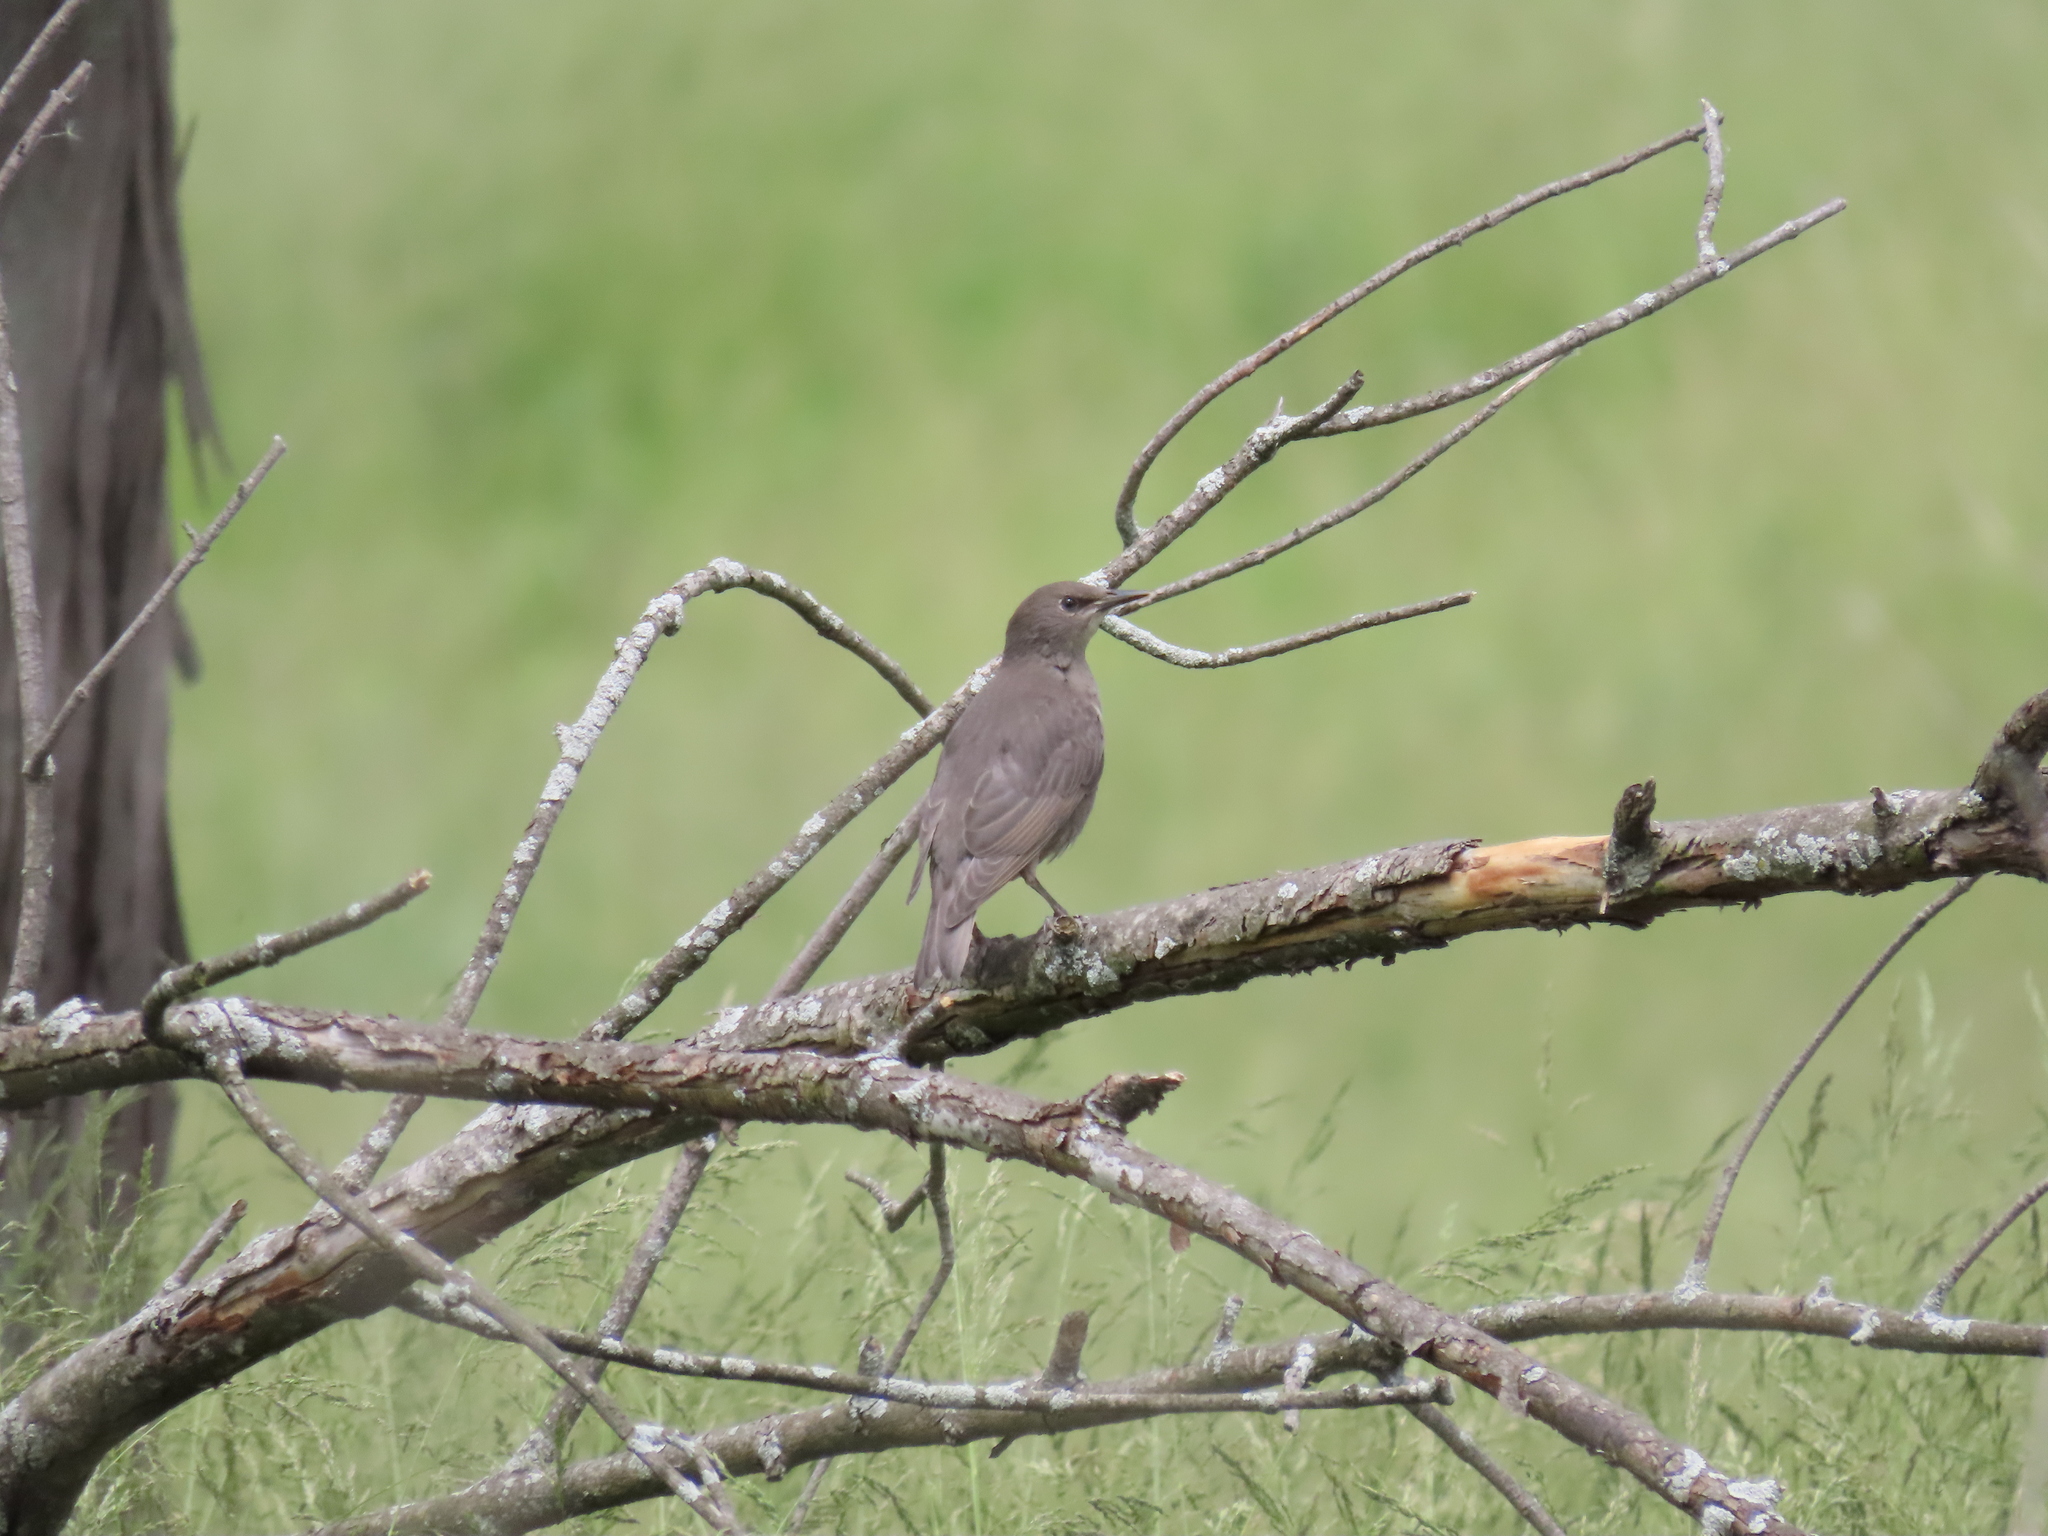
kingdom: Animalia
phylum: Chordata
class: Aves
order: Passeriformes
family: Sturnidae
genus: Sturnus
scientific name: Sturnus vulgaris
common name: Common starling
